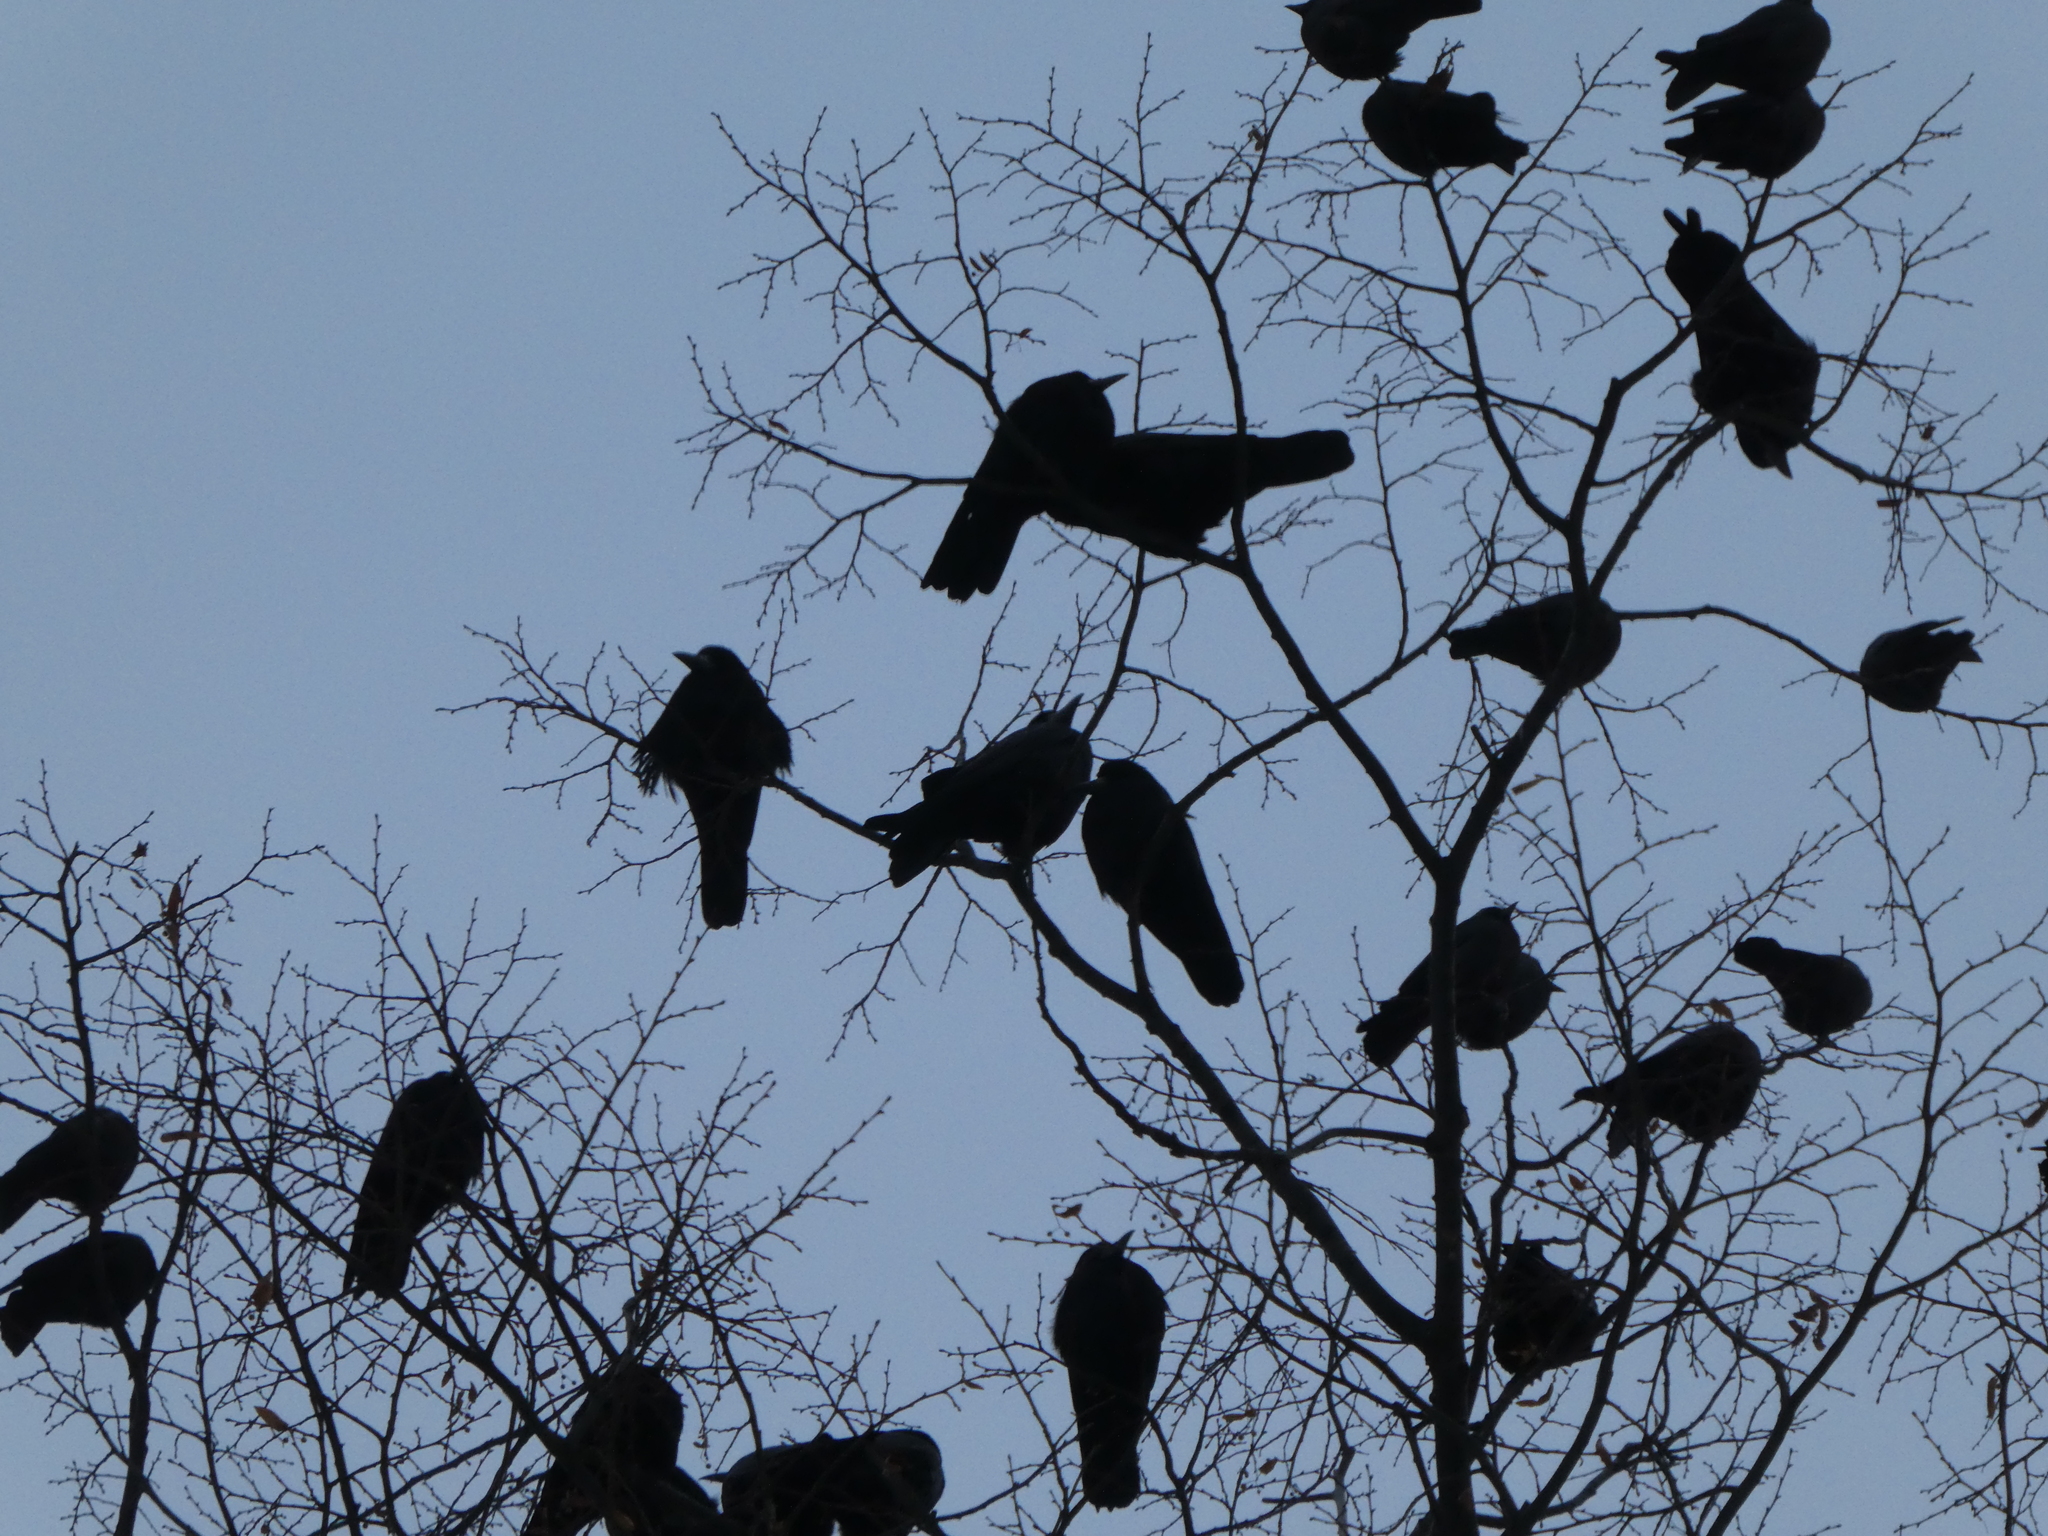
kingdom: Animalia
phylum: Chordata
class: Aves
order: Passeriformes
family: Corvidae
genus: Corvus
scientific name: Corvus frugilegus
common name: Rook
